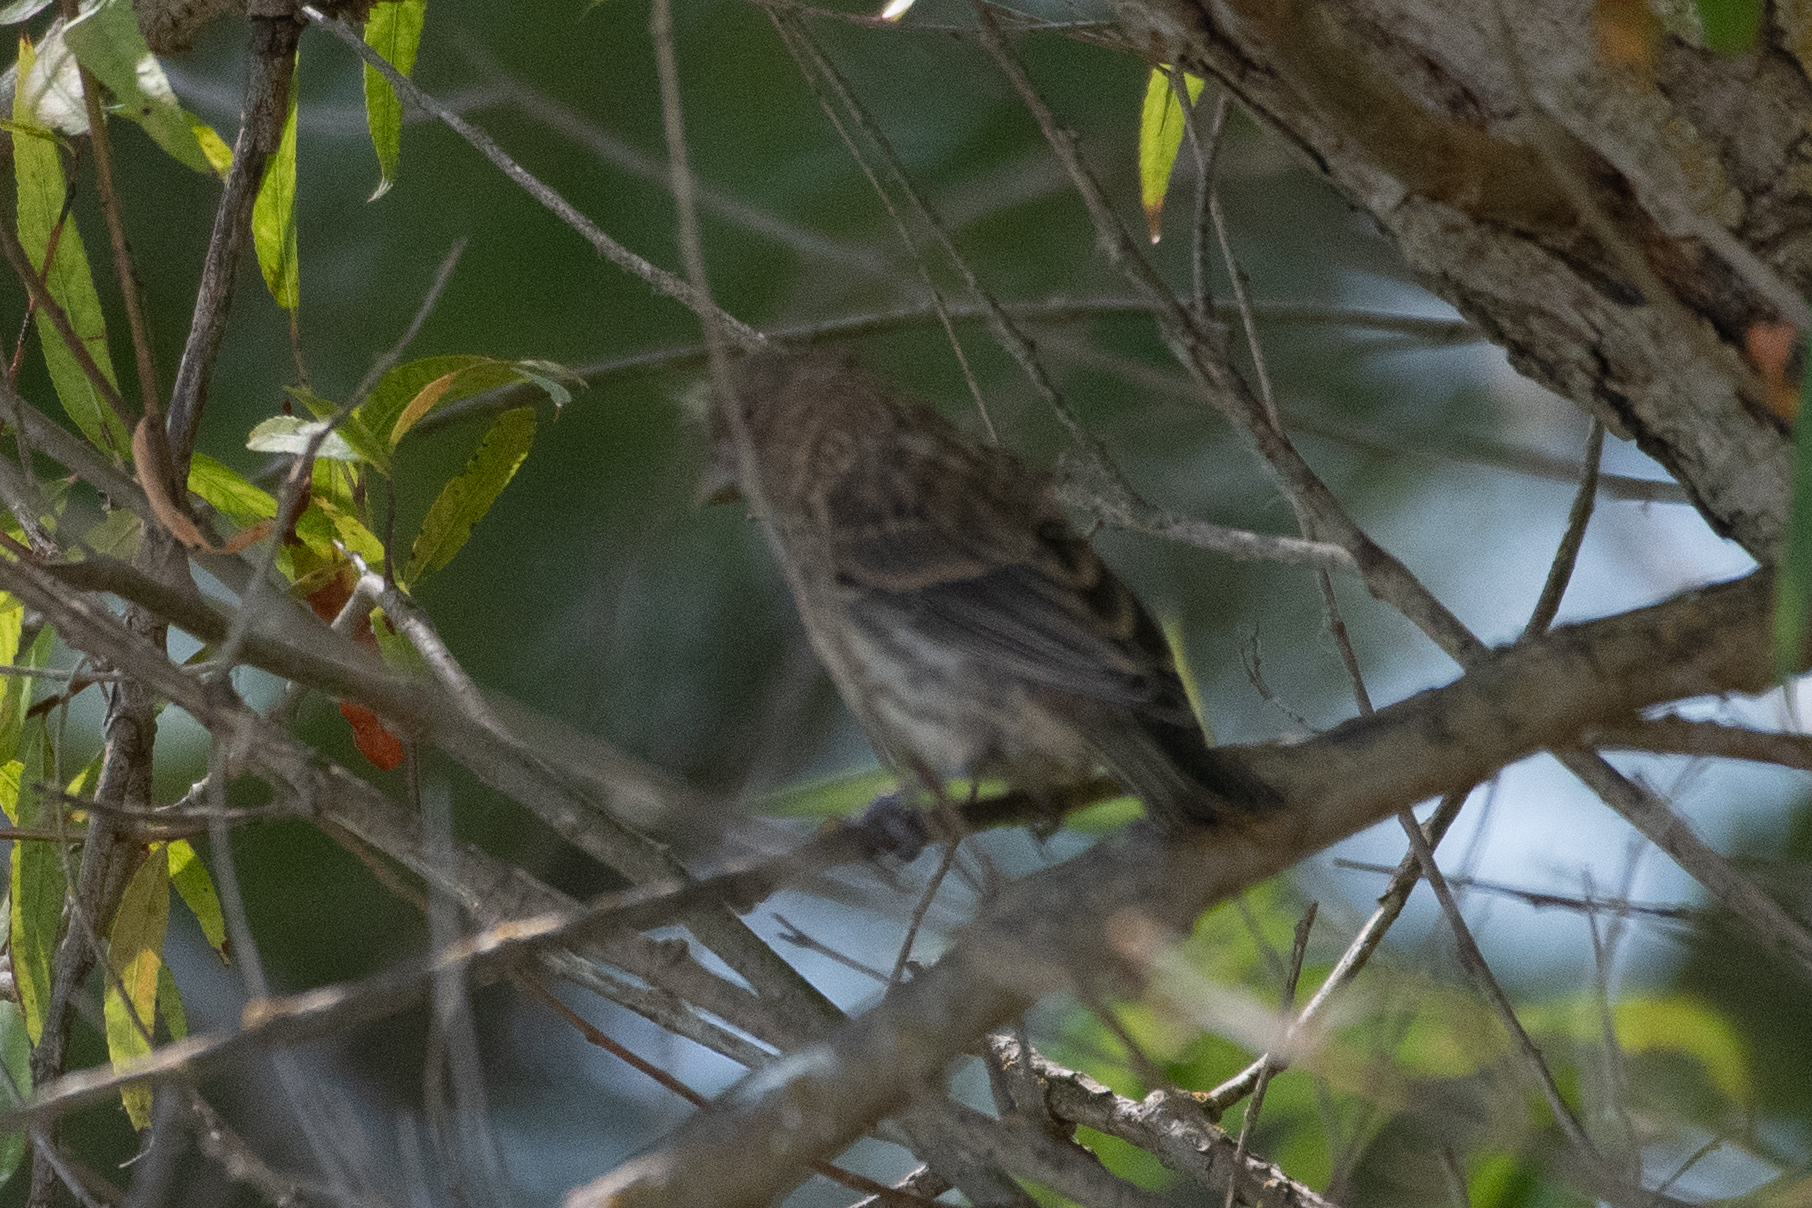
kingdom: Animalia
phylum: Chordata
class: Aves
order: Passeriformes
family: Fringillidae
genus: Haemorhous
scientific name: Haemorhous mexicanus
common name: House finch
